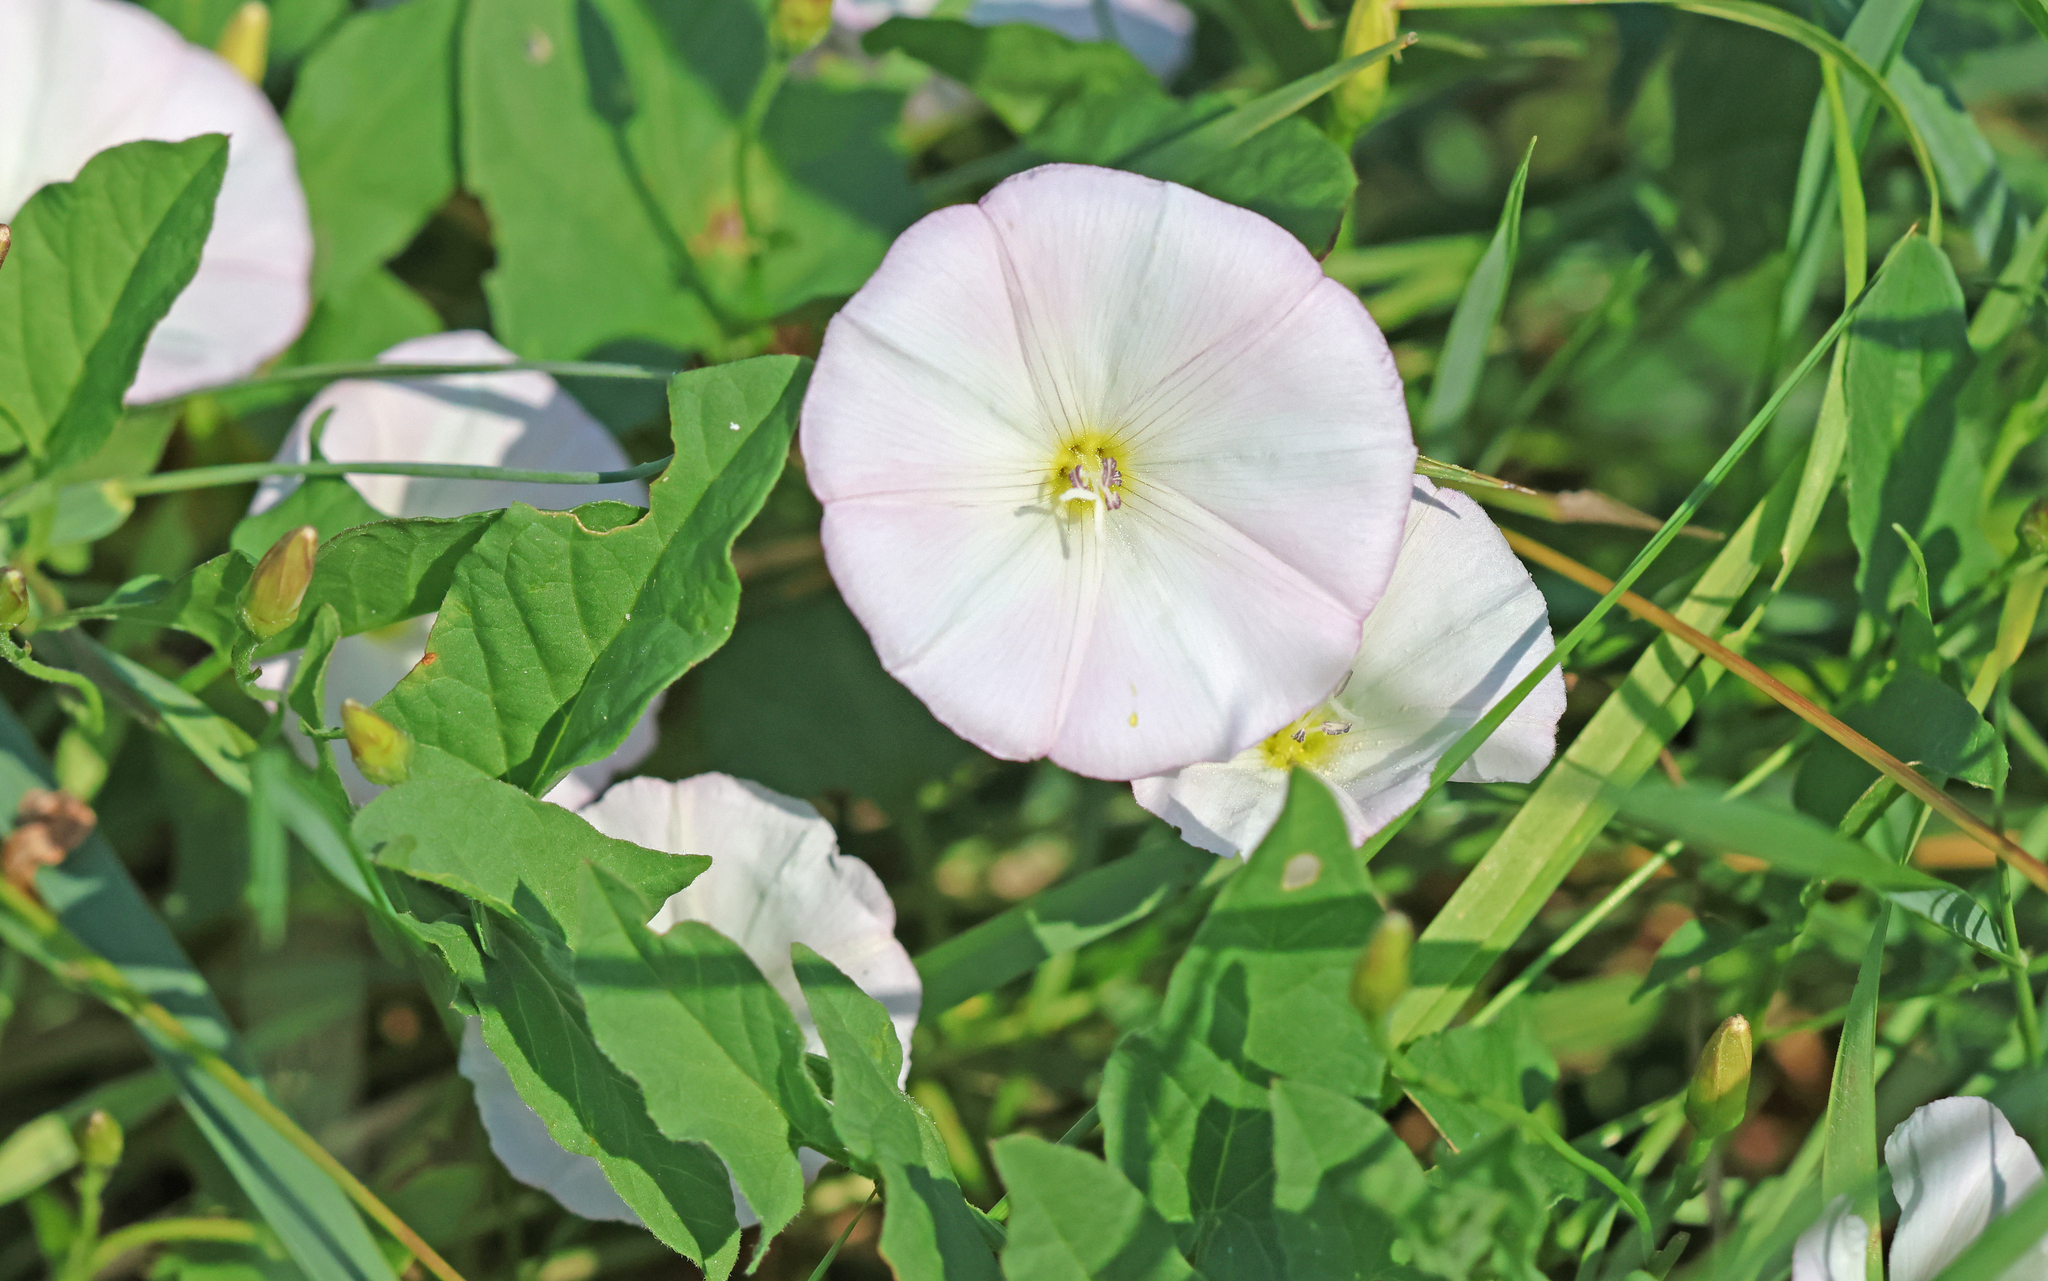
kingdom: Plantae
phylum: Tracheophyta
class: Magnoliopsida
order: Solanales
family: Convolvulaceae
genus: Convolvulus
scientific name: Convolvulus arvensis
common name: Field bindweed
